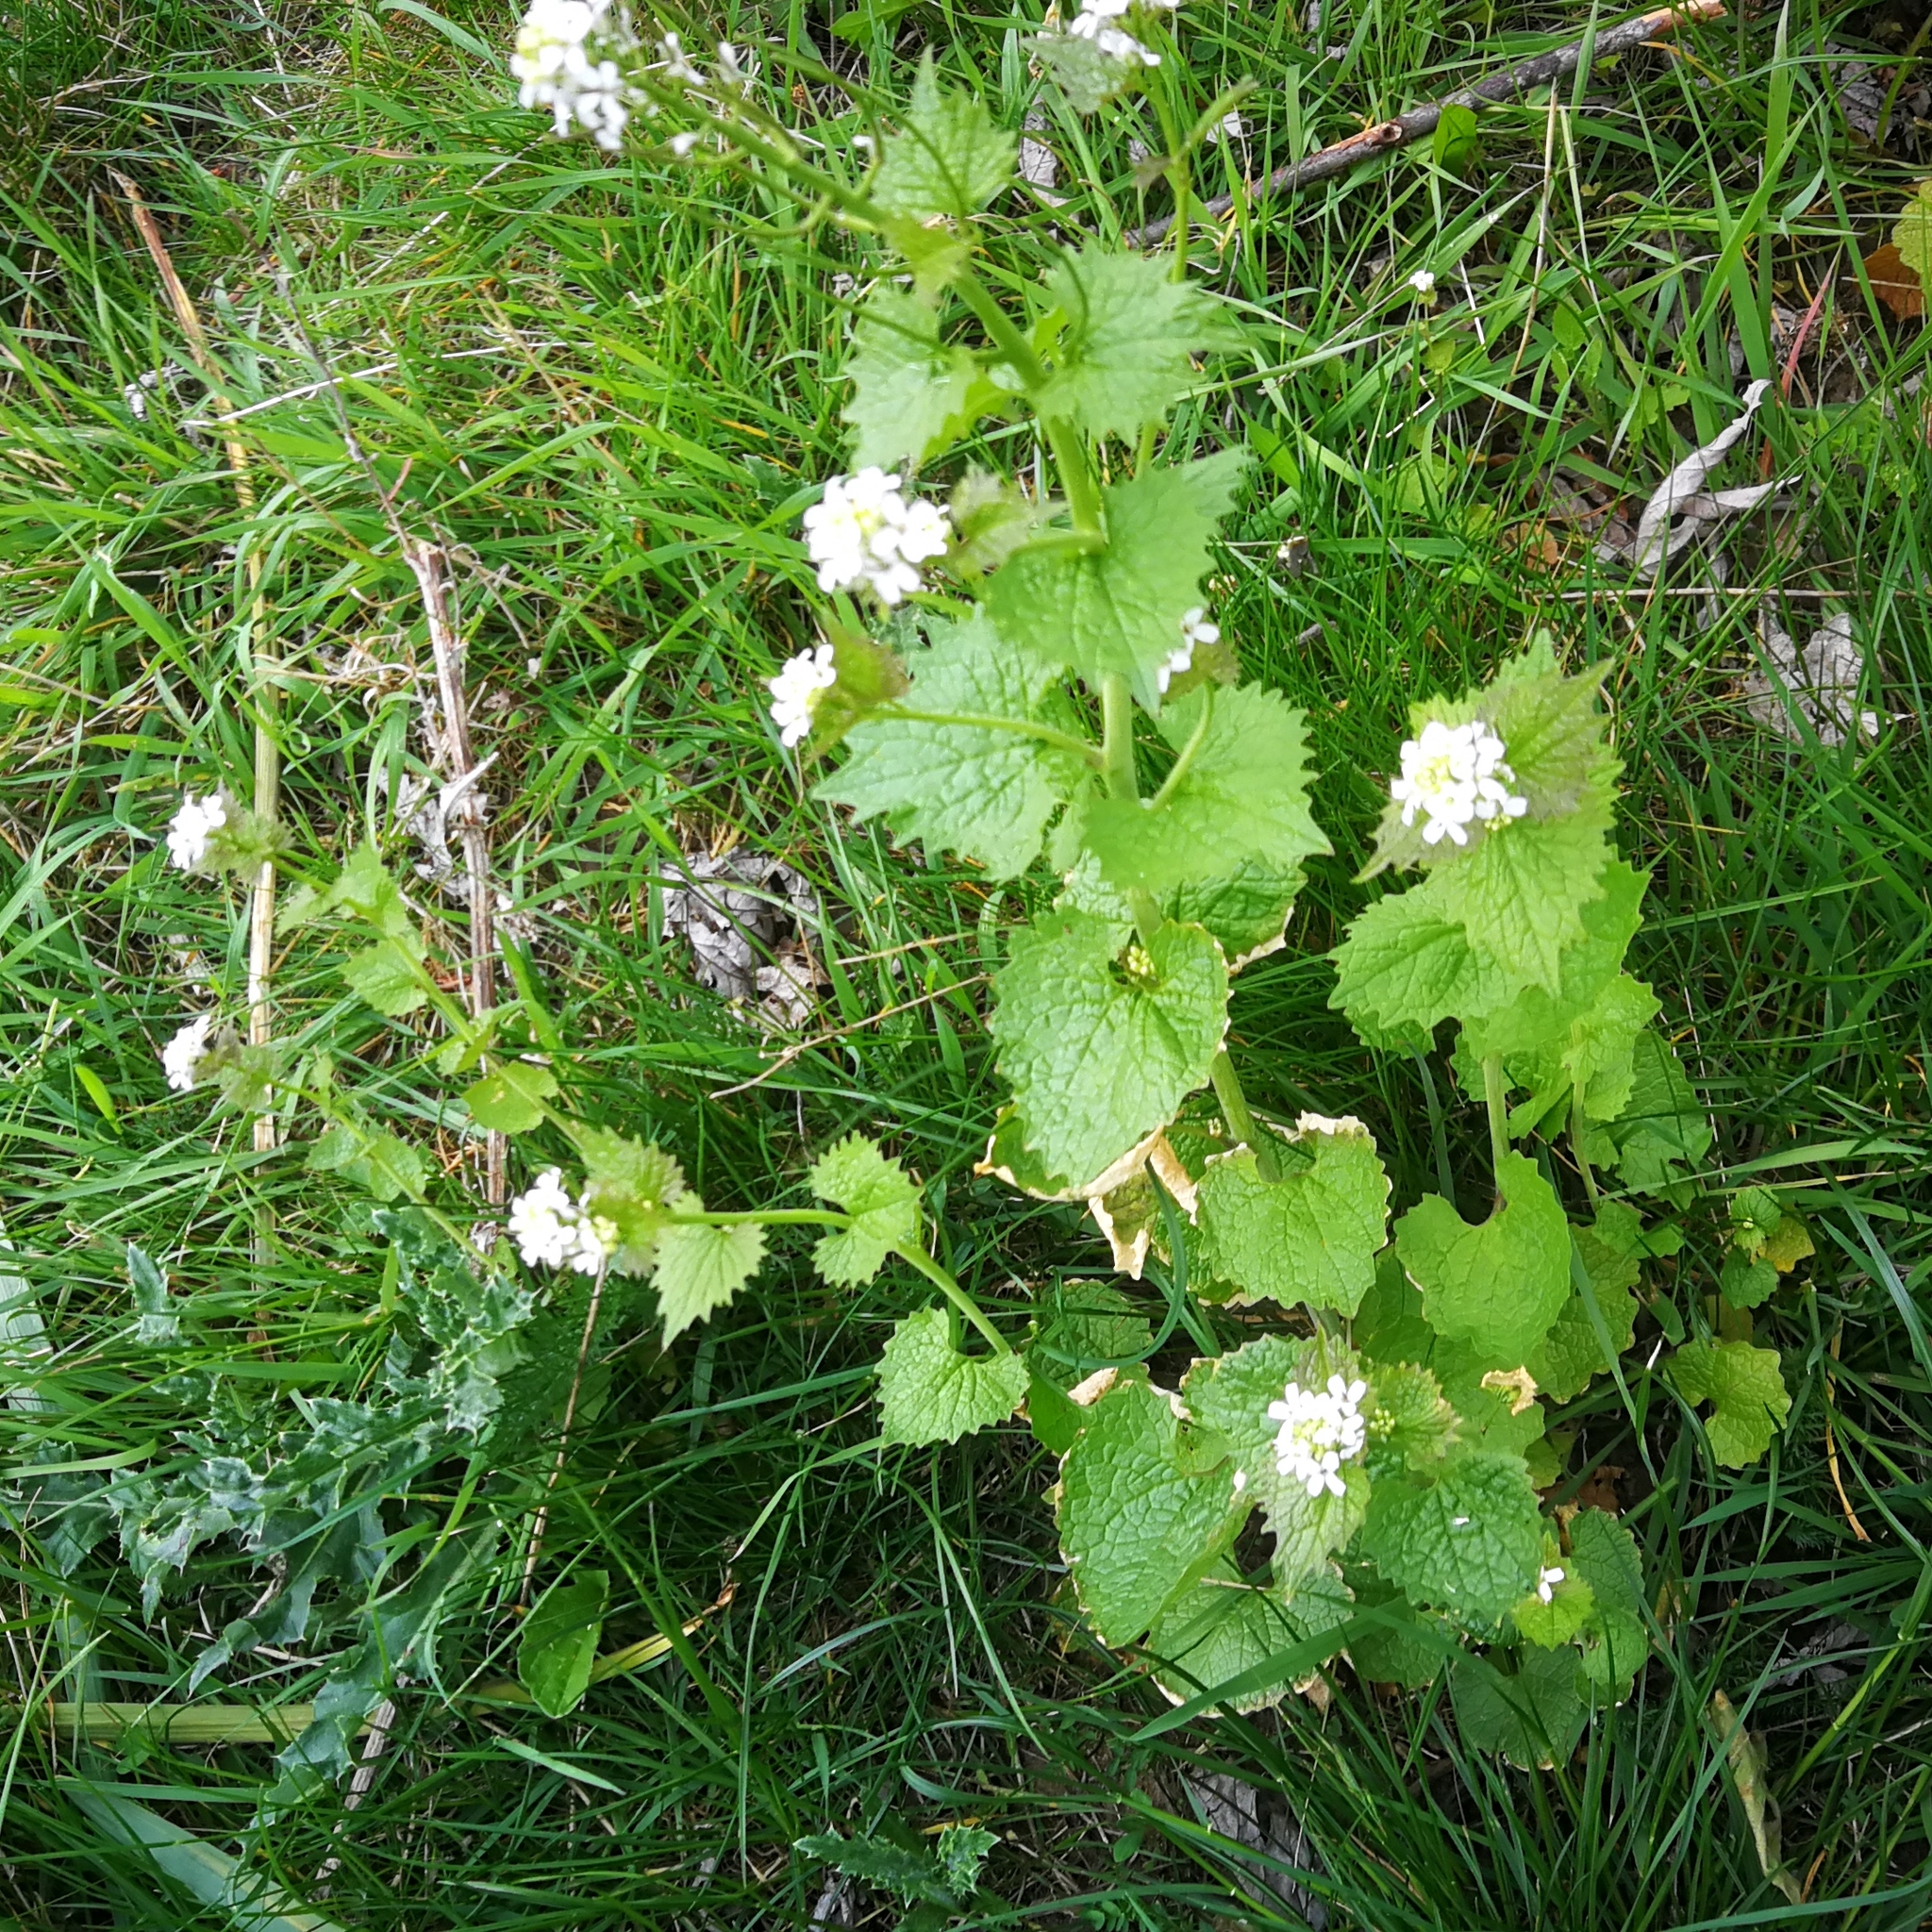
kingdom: Plantae
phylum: Tracheophyta
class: Magnoliopsida
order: Brassicales
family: Brassicaceae
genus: Alliaria
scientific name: Alliaria petiolata
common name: Garlic mustard
